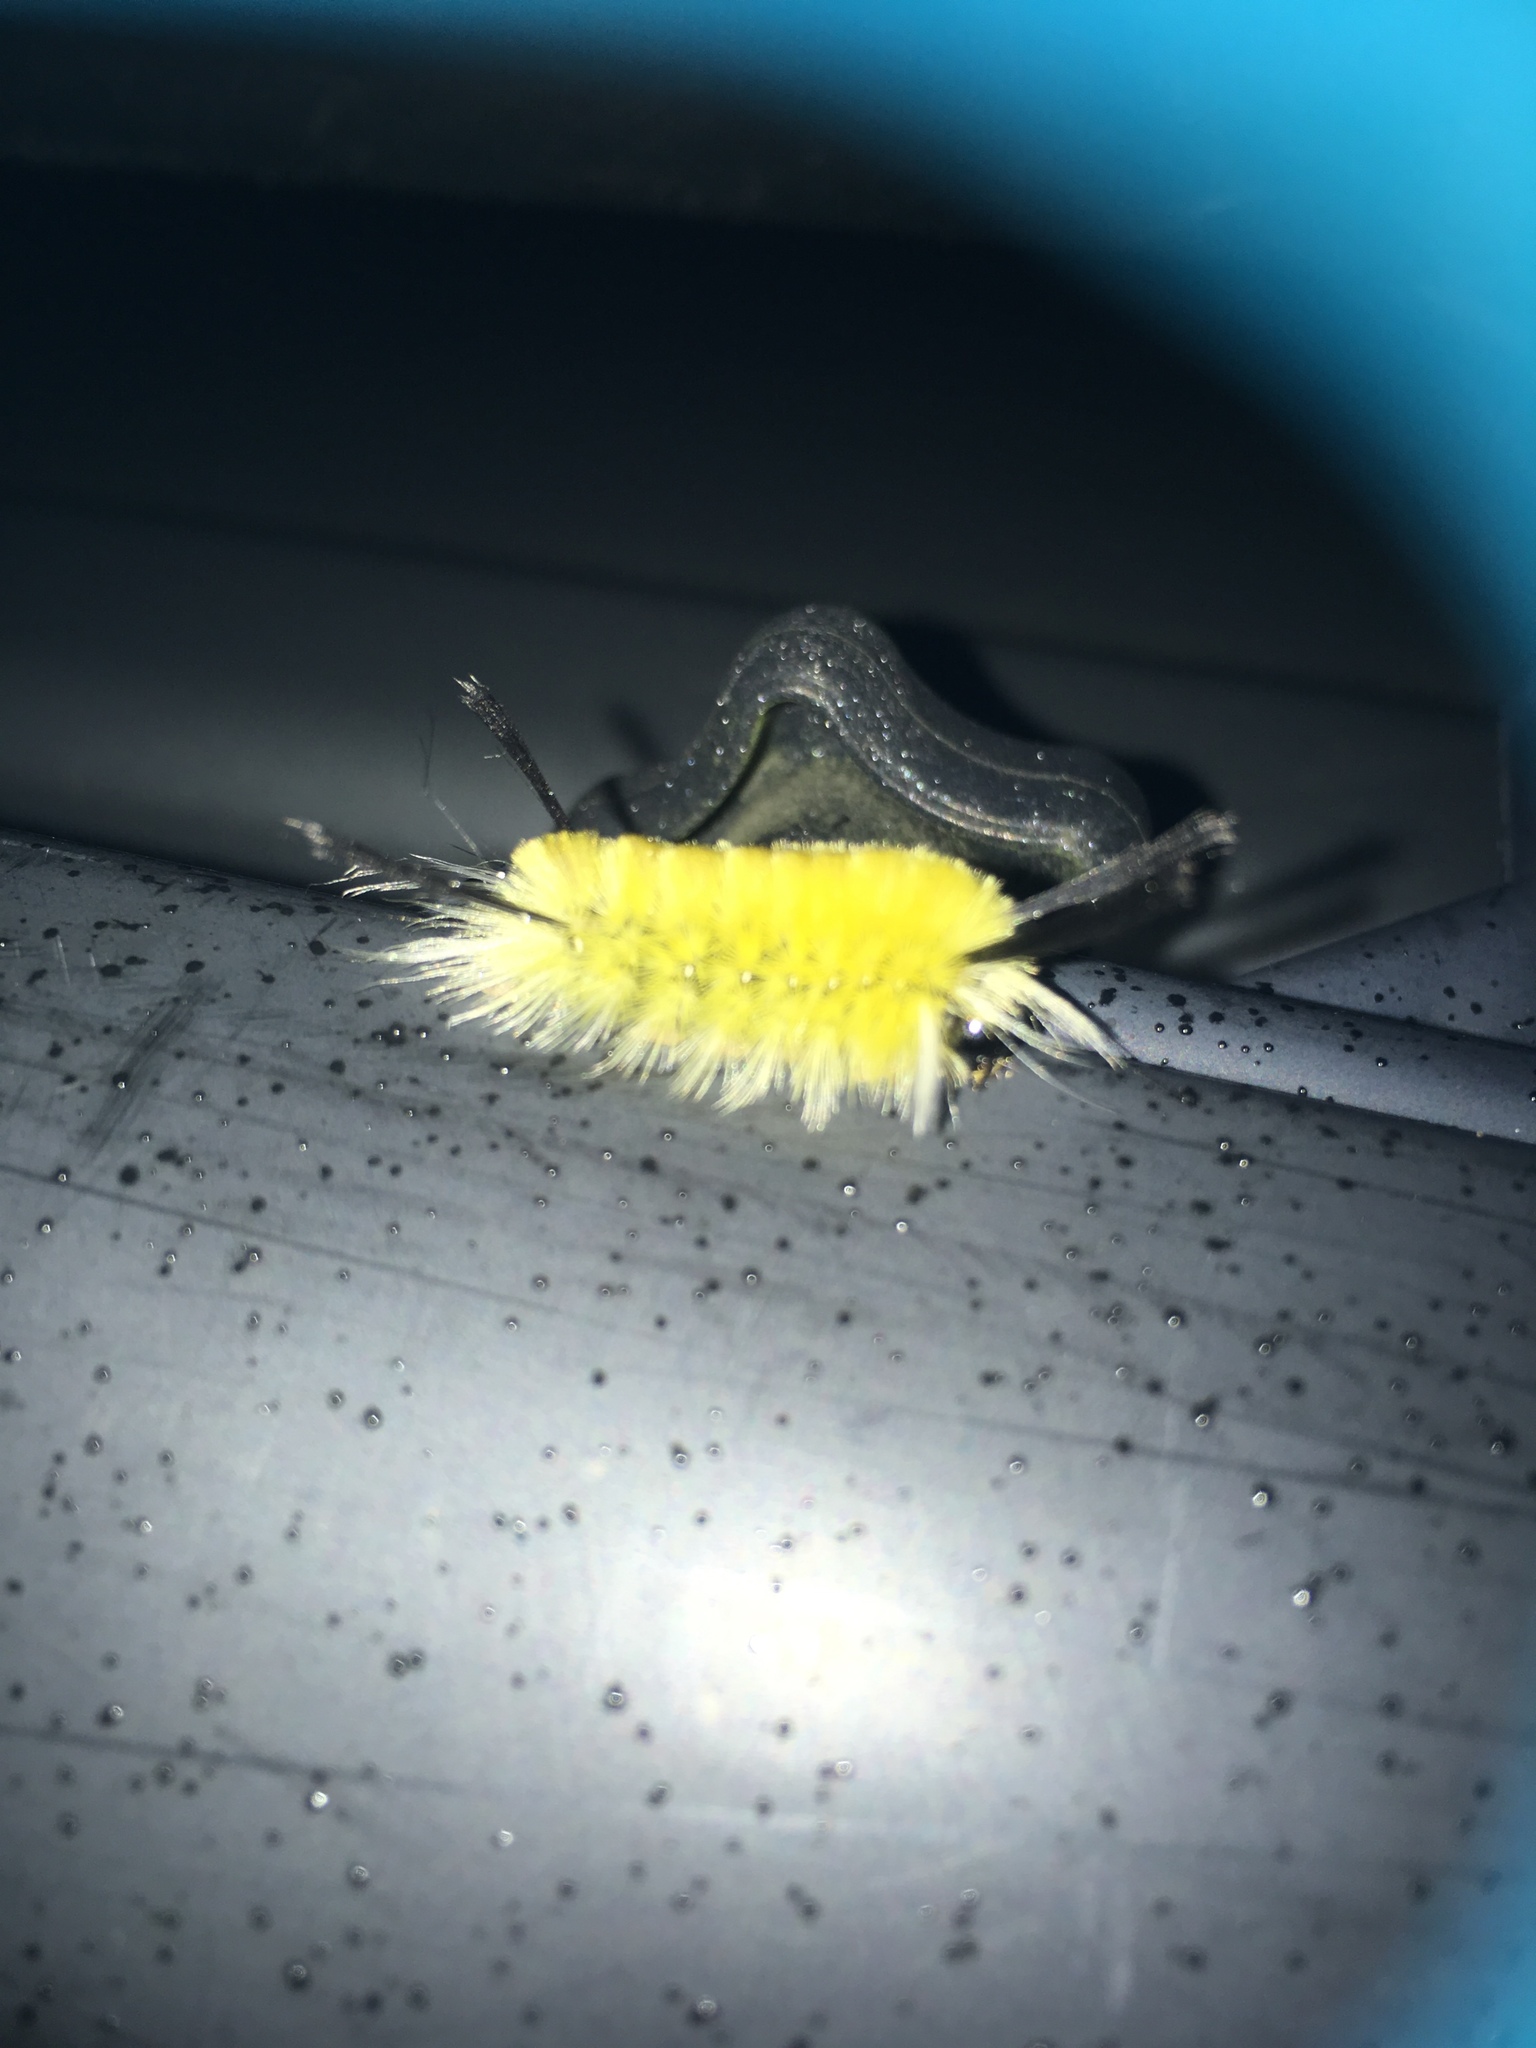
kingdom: Animalia
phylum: Arthropoda
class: Insecta
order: Lepidoptera
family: Erebidae
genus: Halysidota
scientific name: Halysidota tessellaris
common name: Banded tussock moth
